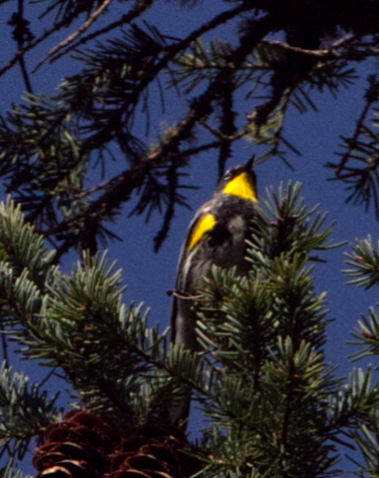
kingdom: Animalia
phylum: Chordata
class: Aves
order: Passeriformes
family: Parulidae
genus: Setophaga
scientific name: Setophaga coronata
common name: Myrtle warbler
